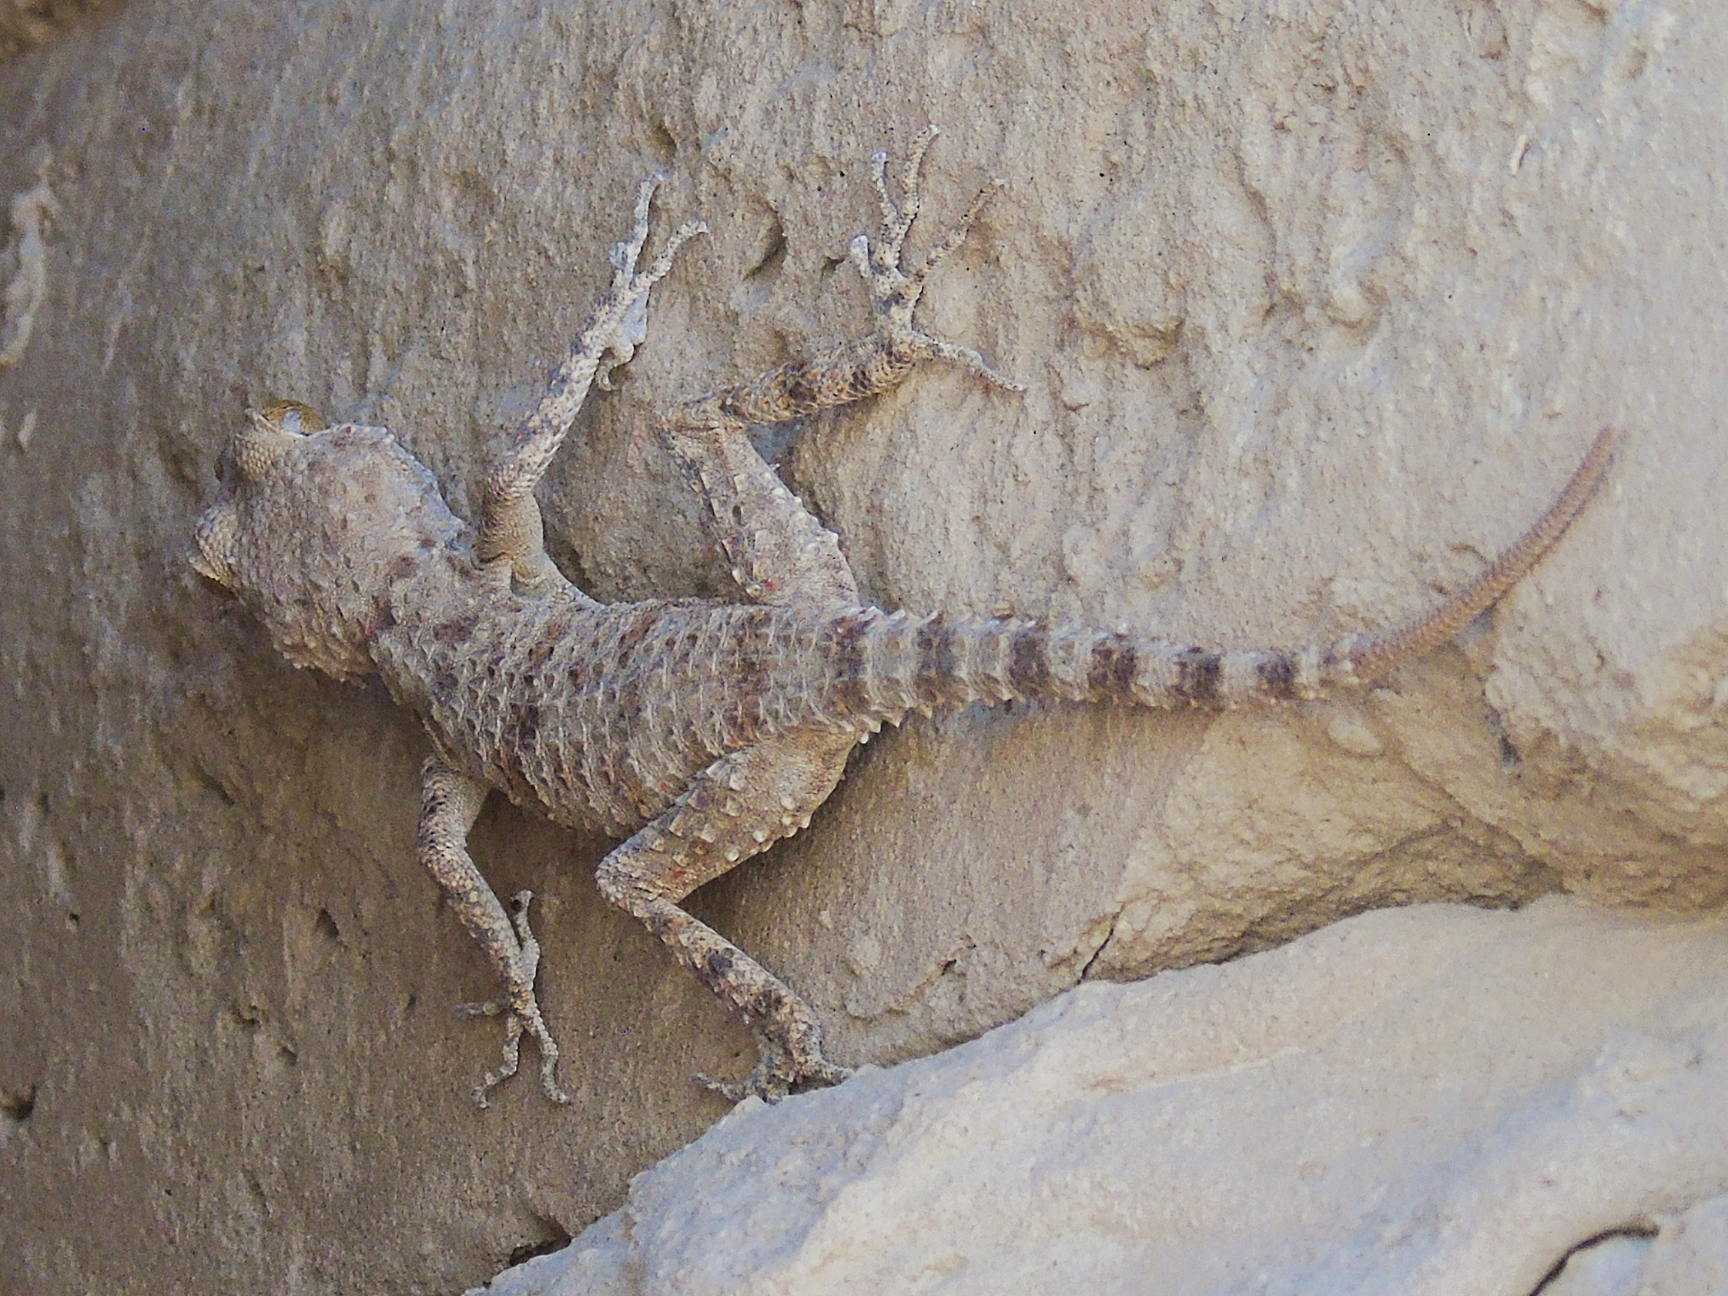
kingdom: Animalia
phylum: Chordata
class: Squamata
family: Gekkonidae
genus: Tenuidactylus
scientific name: Tenuidactylus fedtschenkoi
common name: Turkestan thin-toed gecko
